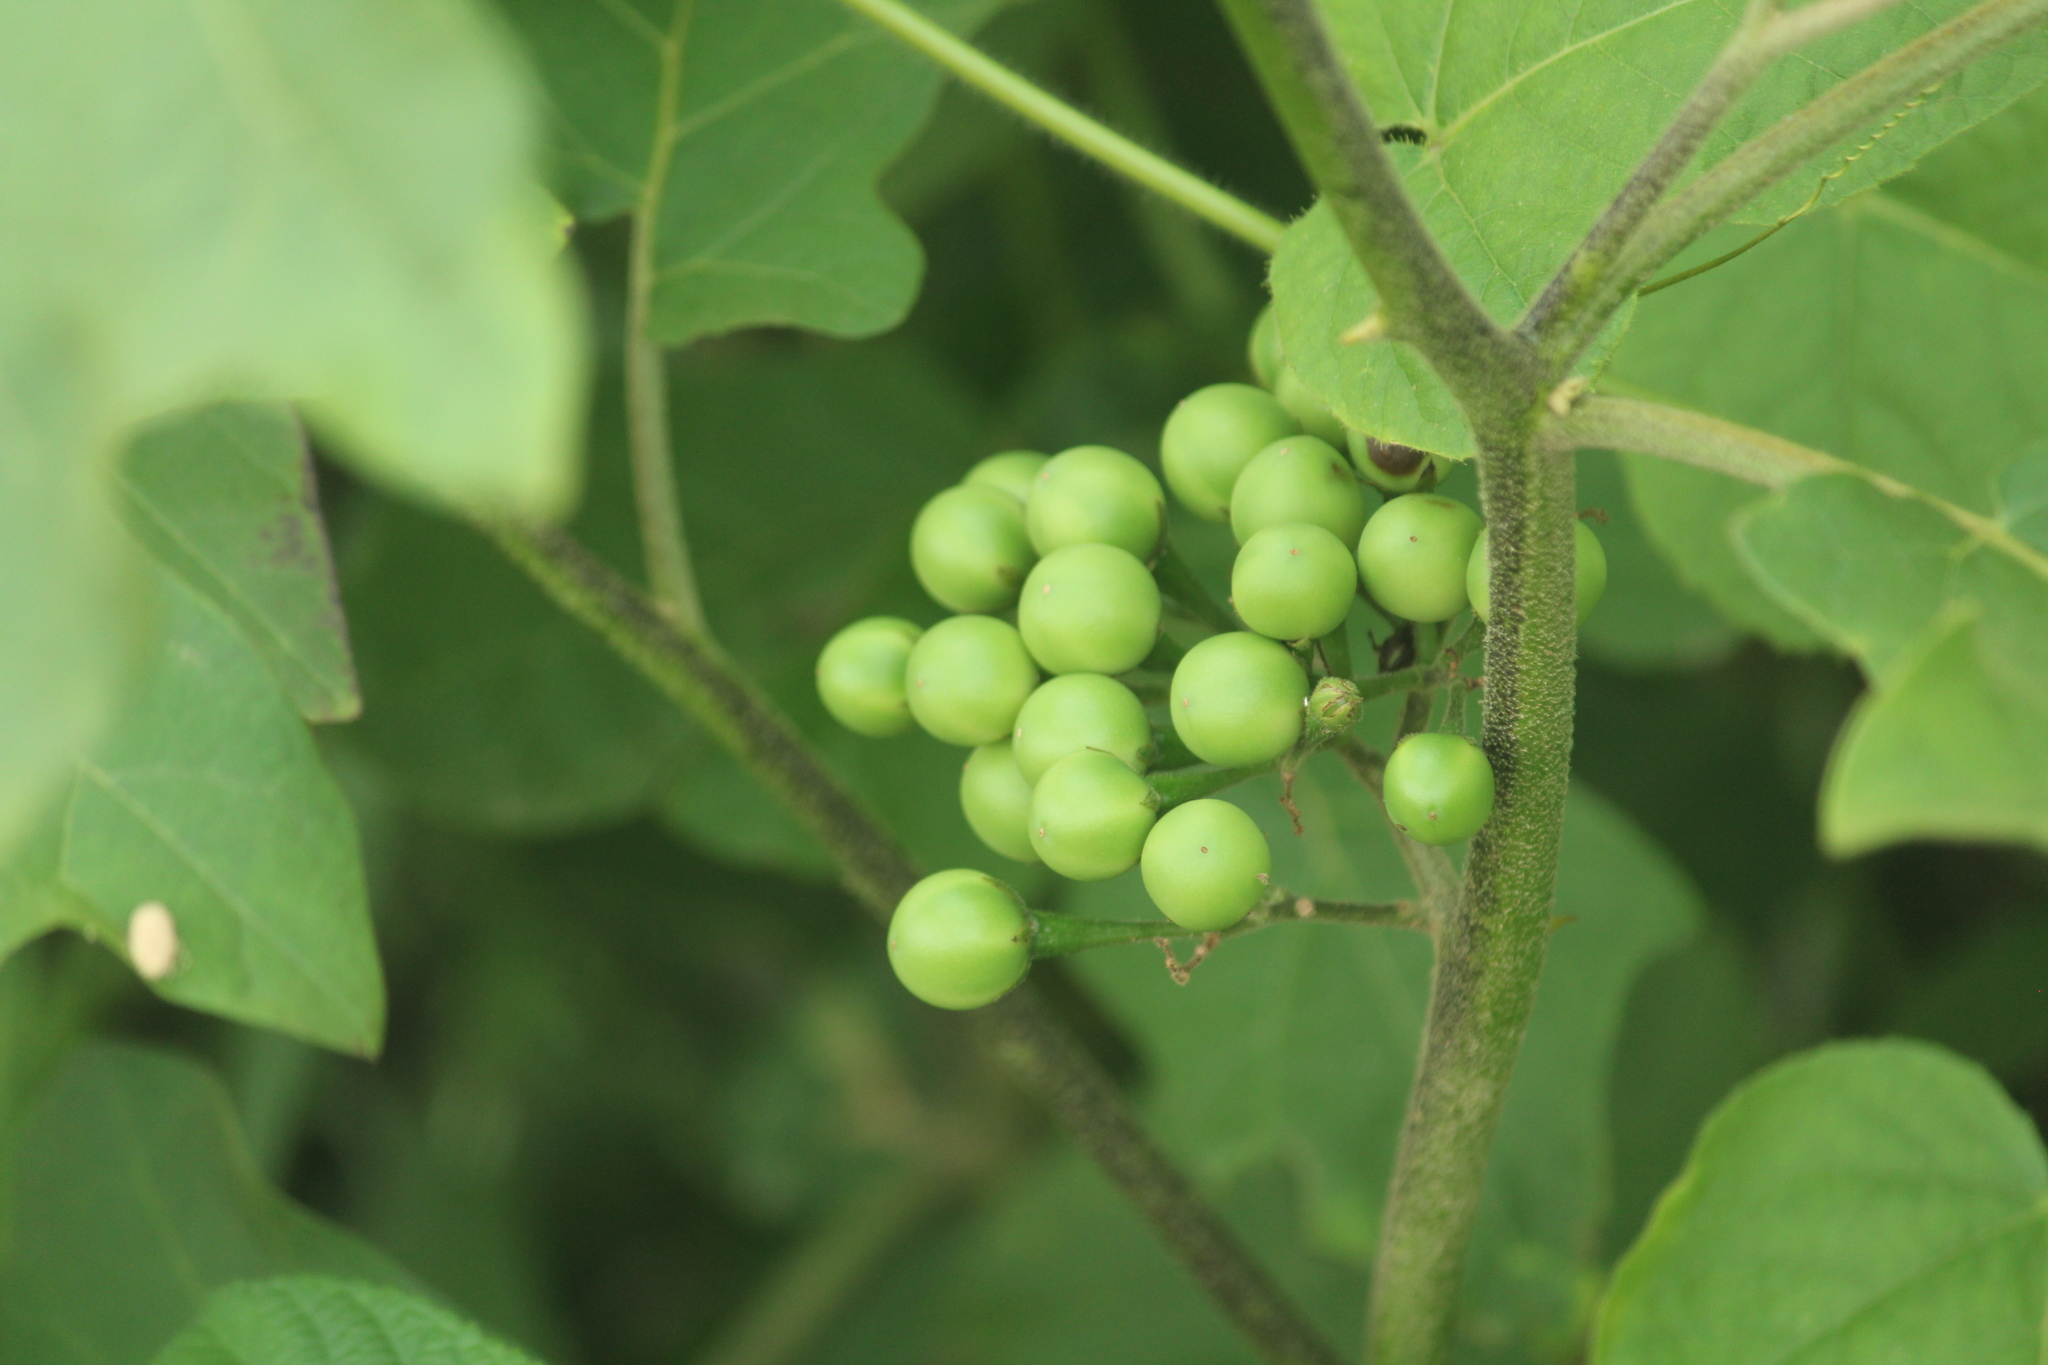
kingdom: Plantae
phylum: Tracheophyta
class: Magnoliopsida
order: Solanales
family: Solanaceae
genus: Solanum
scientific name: Solanum torvum
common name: Turkey berry
